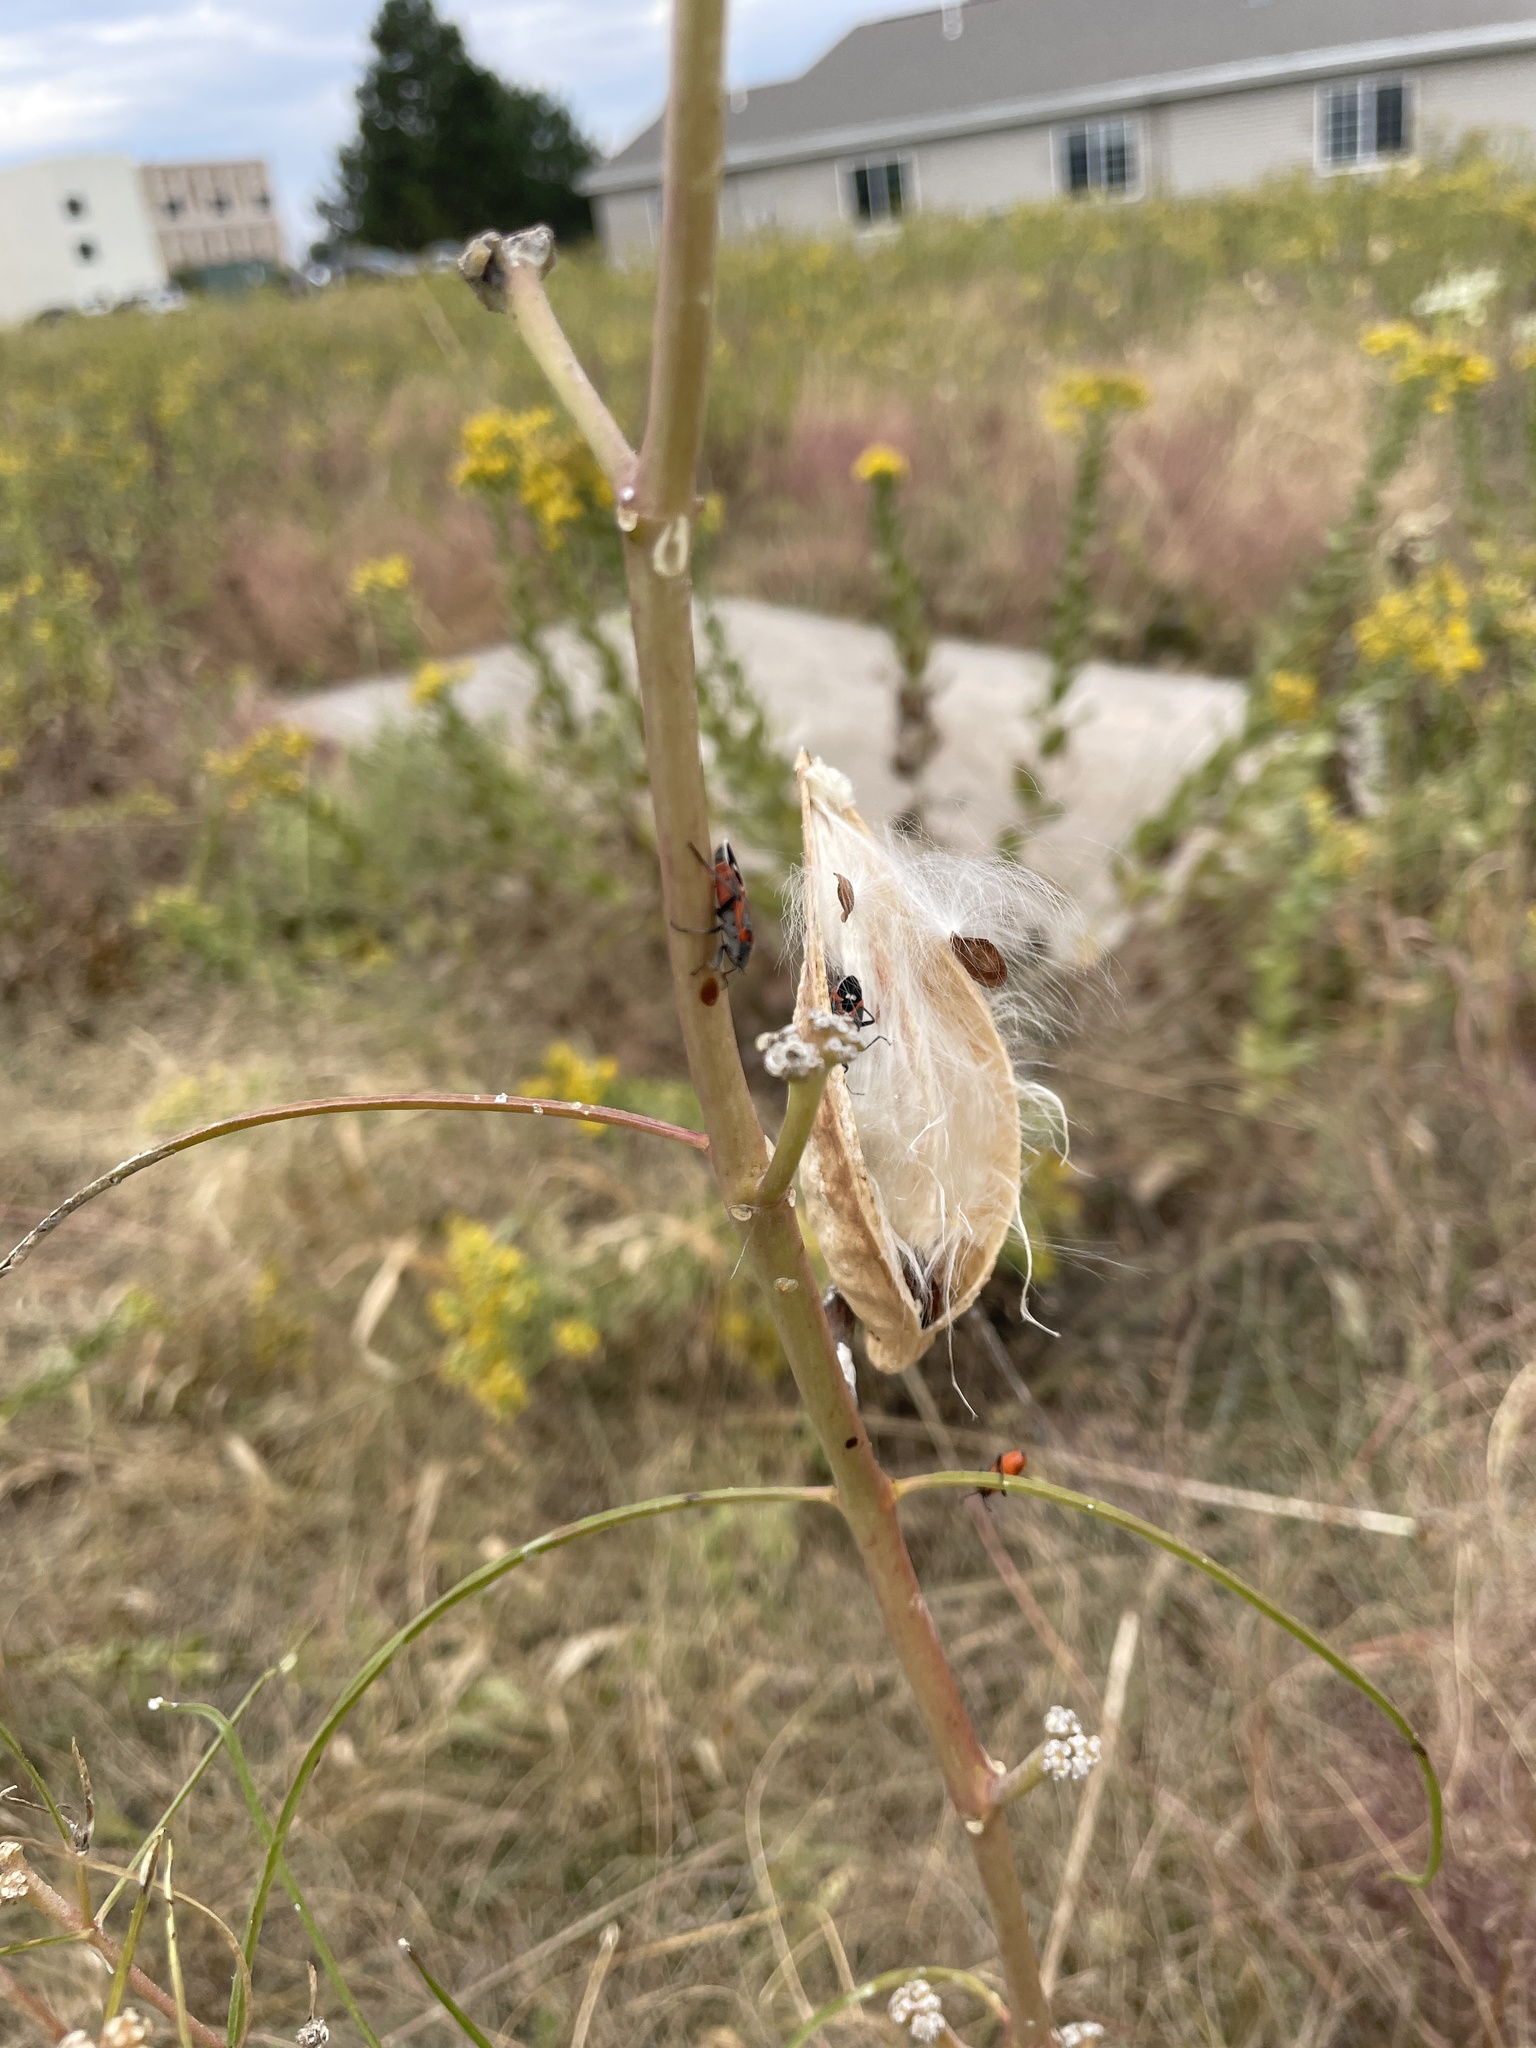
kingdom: Plantae
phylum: Tracheophyta
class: Magnoliopsida
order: Gentianales
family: Apocynaceae
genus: Asclepias
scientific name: Asclepias engelmanniana
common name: Engelmann's milkweed
